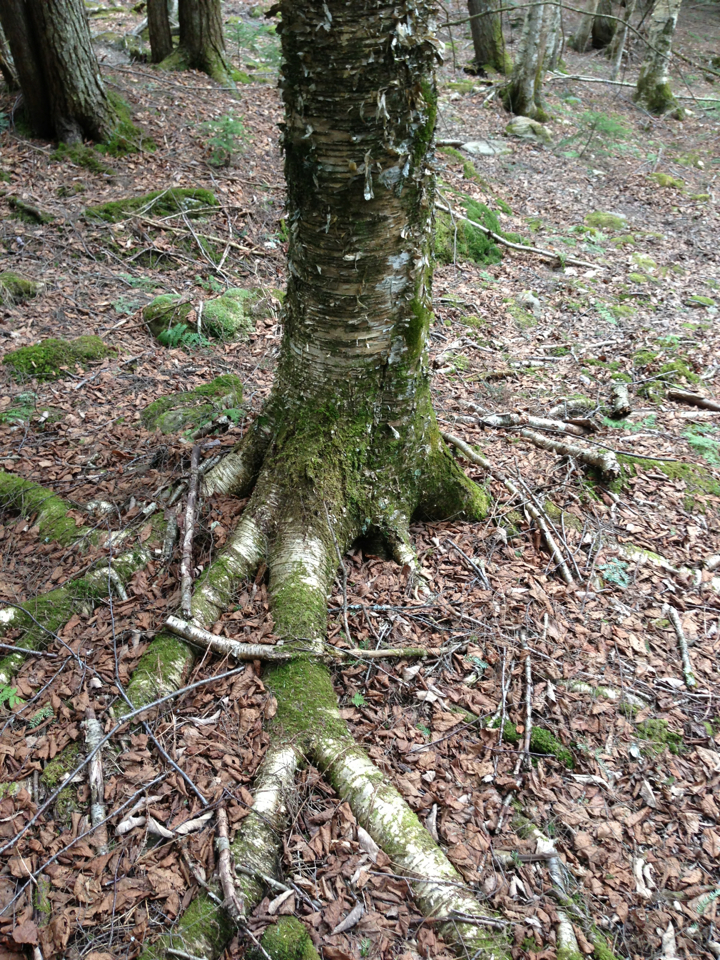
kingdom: Plantae
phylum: Tracheophyta
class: Magnoliopsida
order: Fagales
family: Betulaceae
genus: Betula
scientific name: Betula alleghaniensis
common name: Yellow birch
